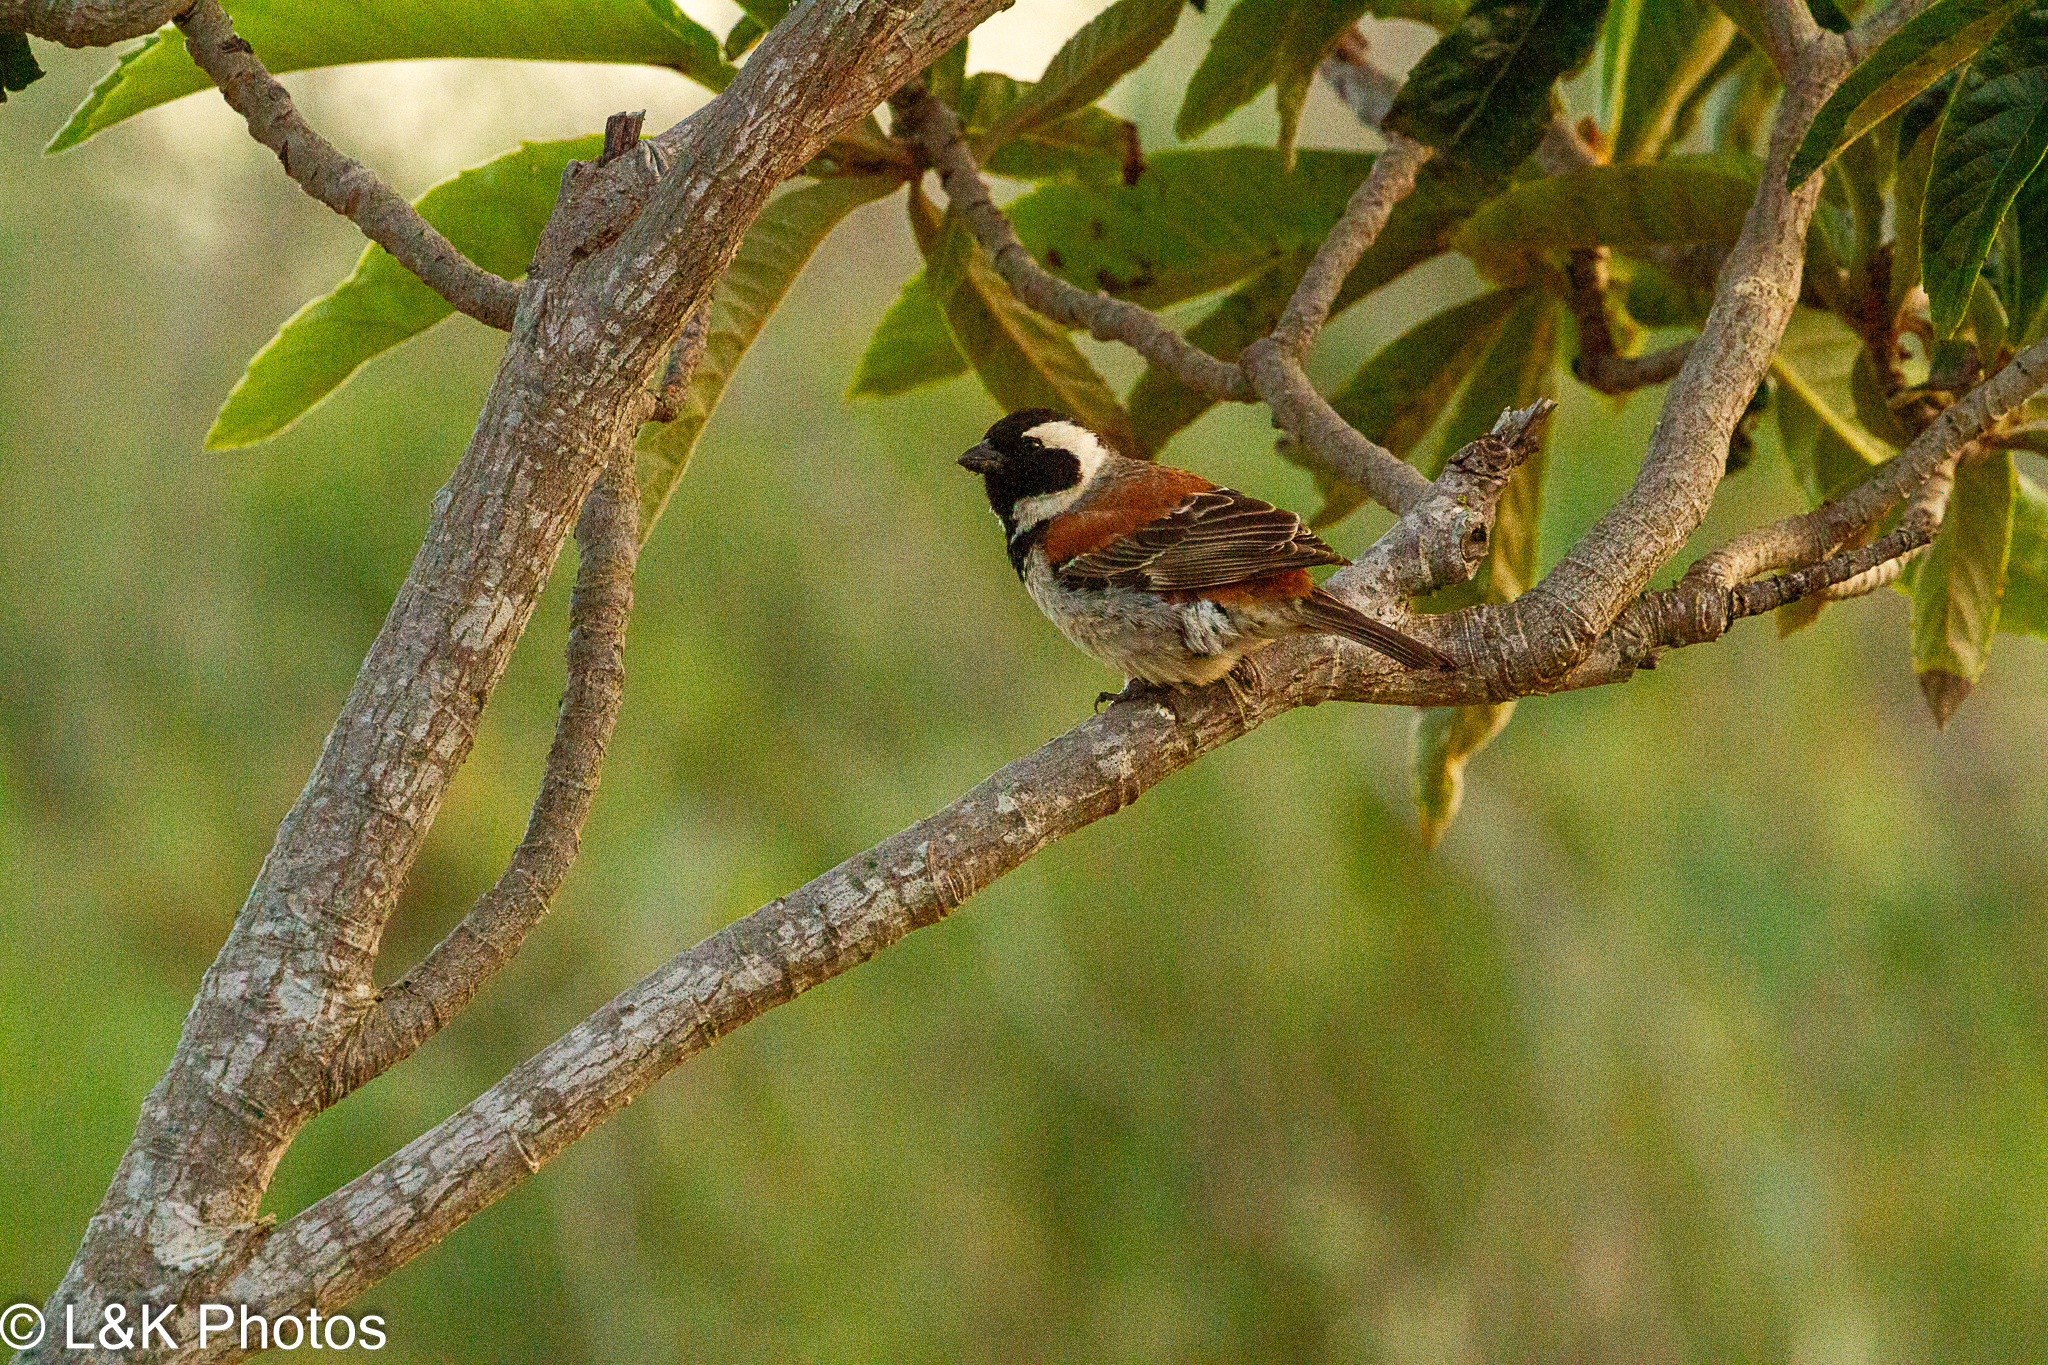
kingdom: Animalia
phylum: Chordata
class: Aves
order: Passeriformes
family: Passeridae
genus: Passer
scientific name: Passer melanurus
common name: Cape sparrow
